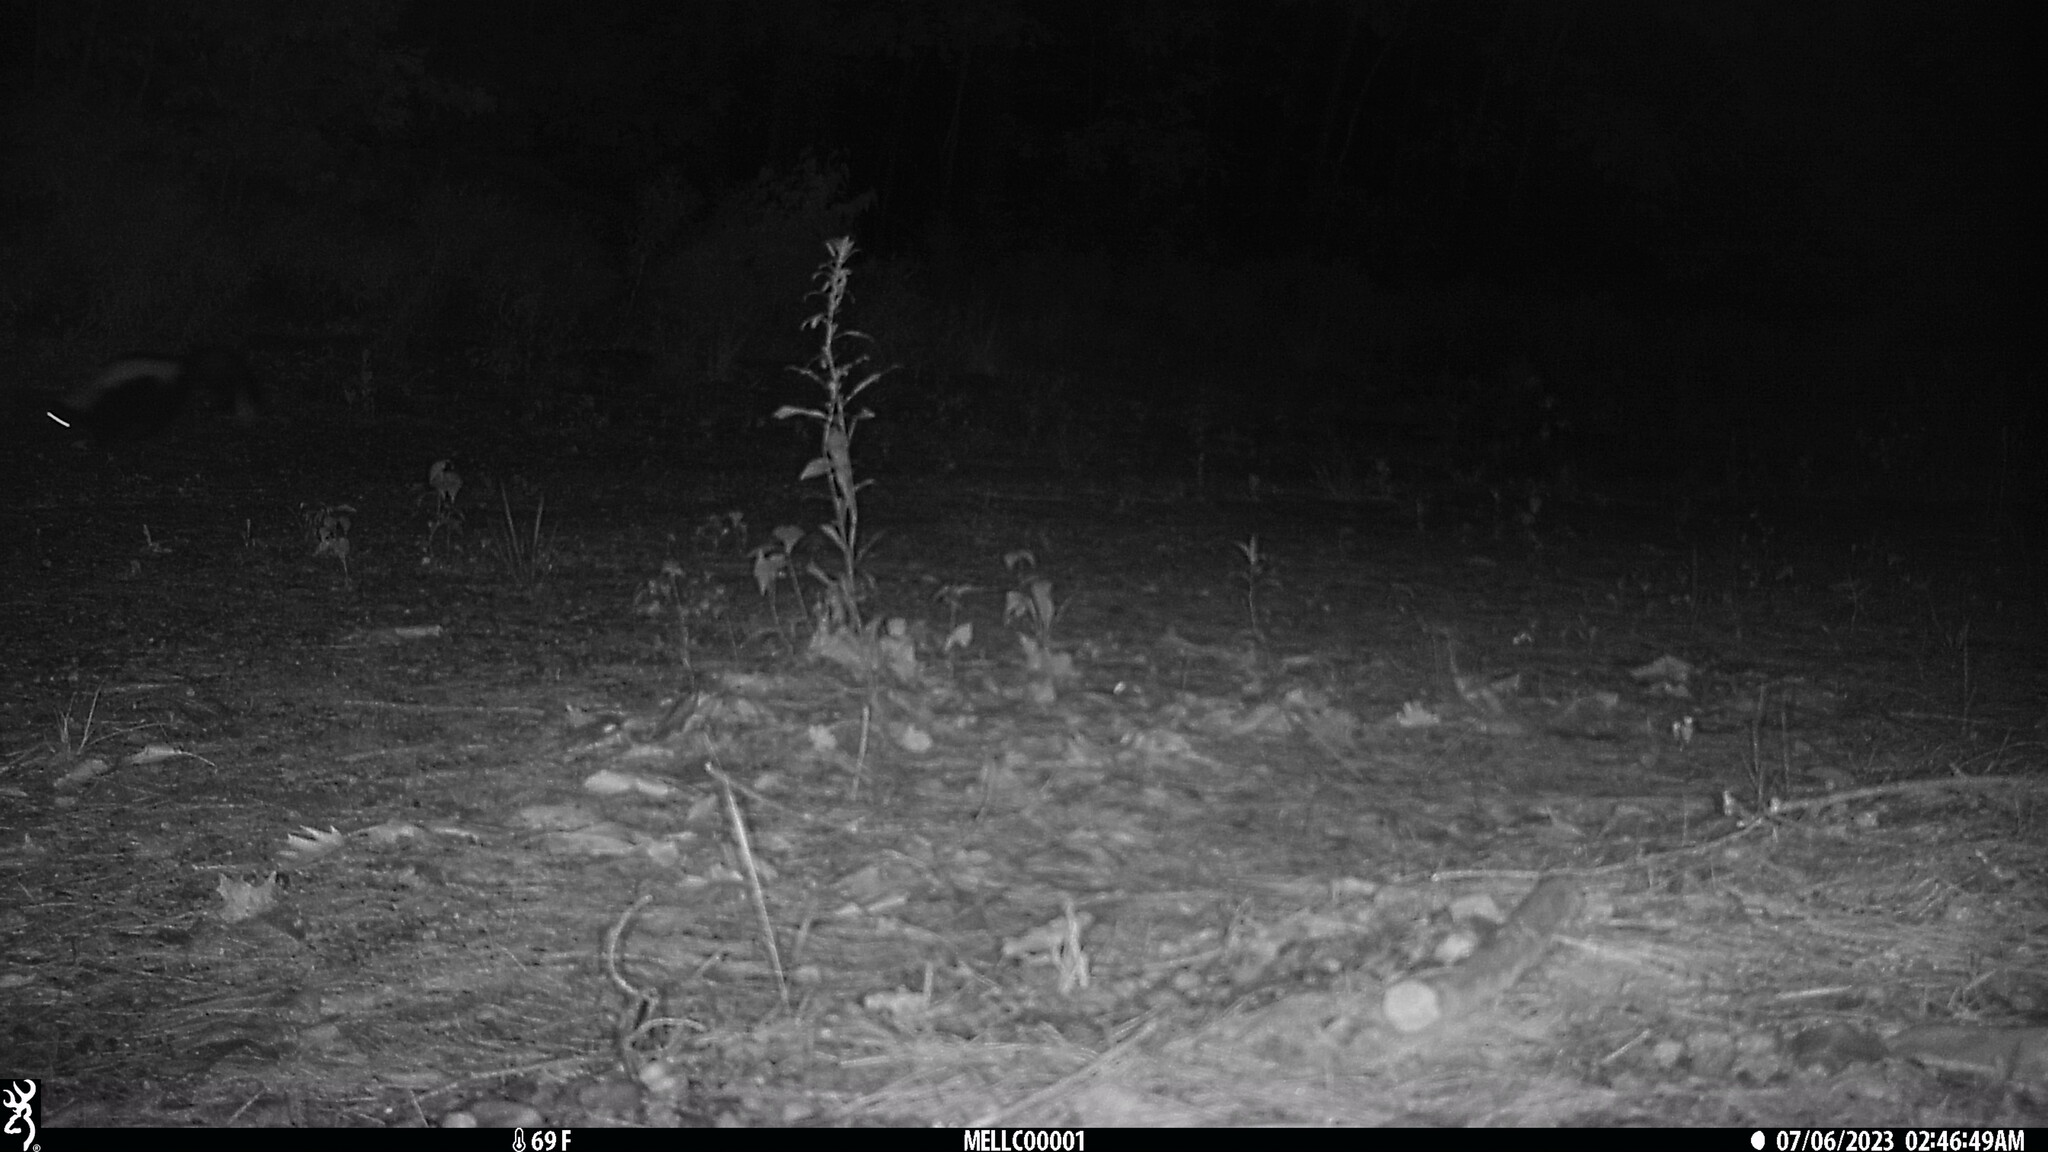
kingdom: Animalia
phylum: Chordata
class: Mammalia
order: Carnivora
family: Mephitidae
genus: Mephitis
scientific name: Mephitis mephitis
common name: Striped skunk
